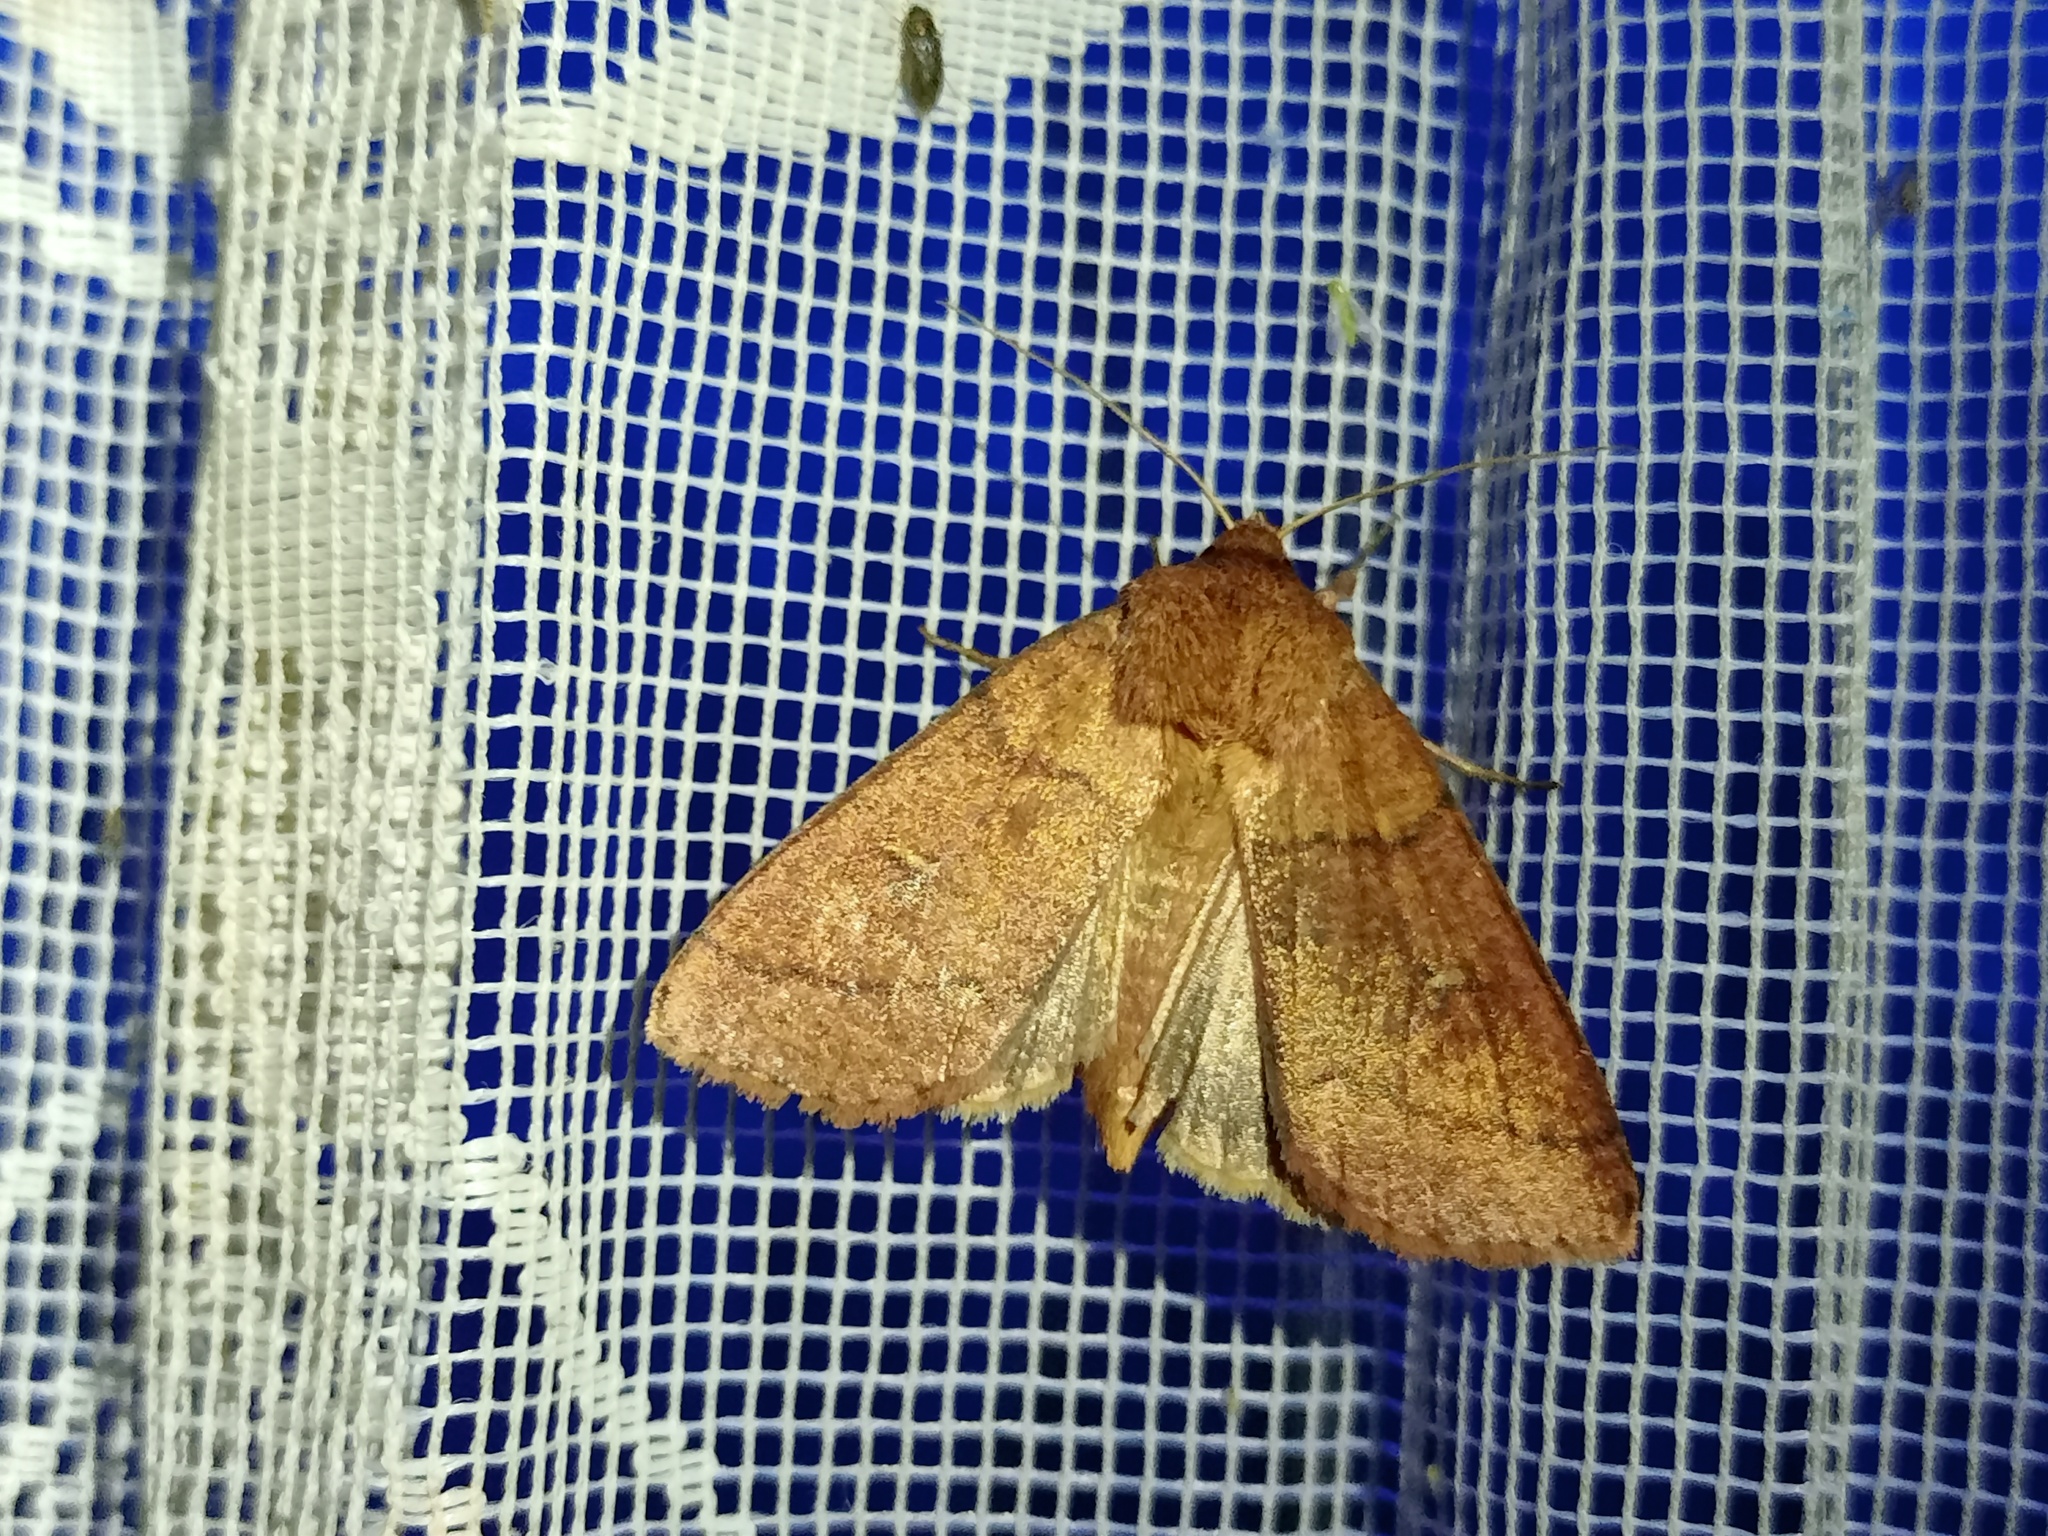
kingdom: Animalia
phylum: Arthropoda
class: Insecta
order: Lepidoptera
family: Noctuidae
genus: Mythimna
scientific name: Mythimna turca
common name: Double line
